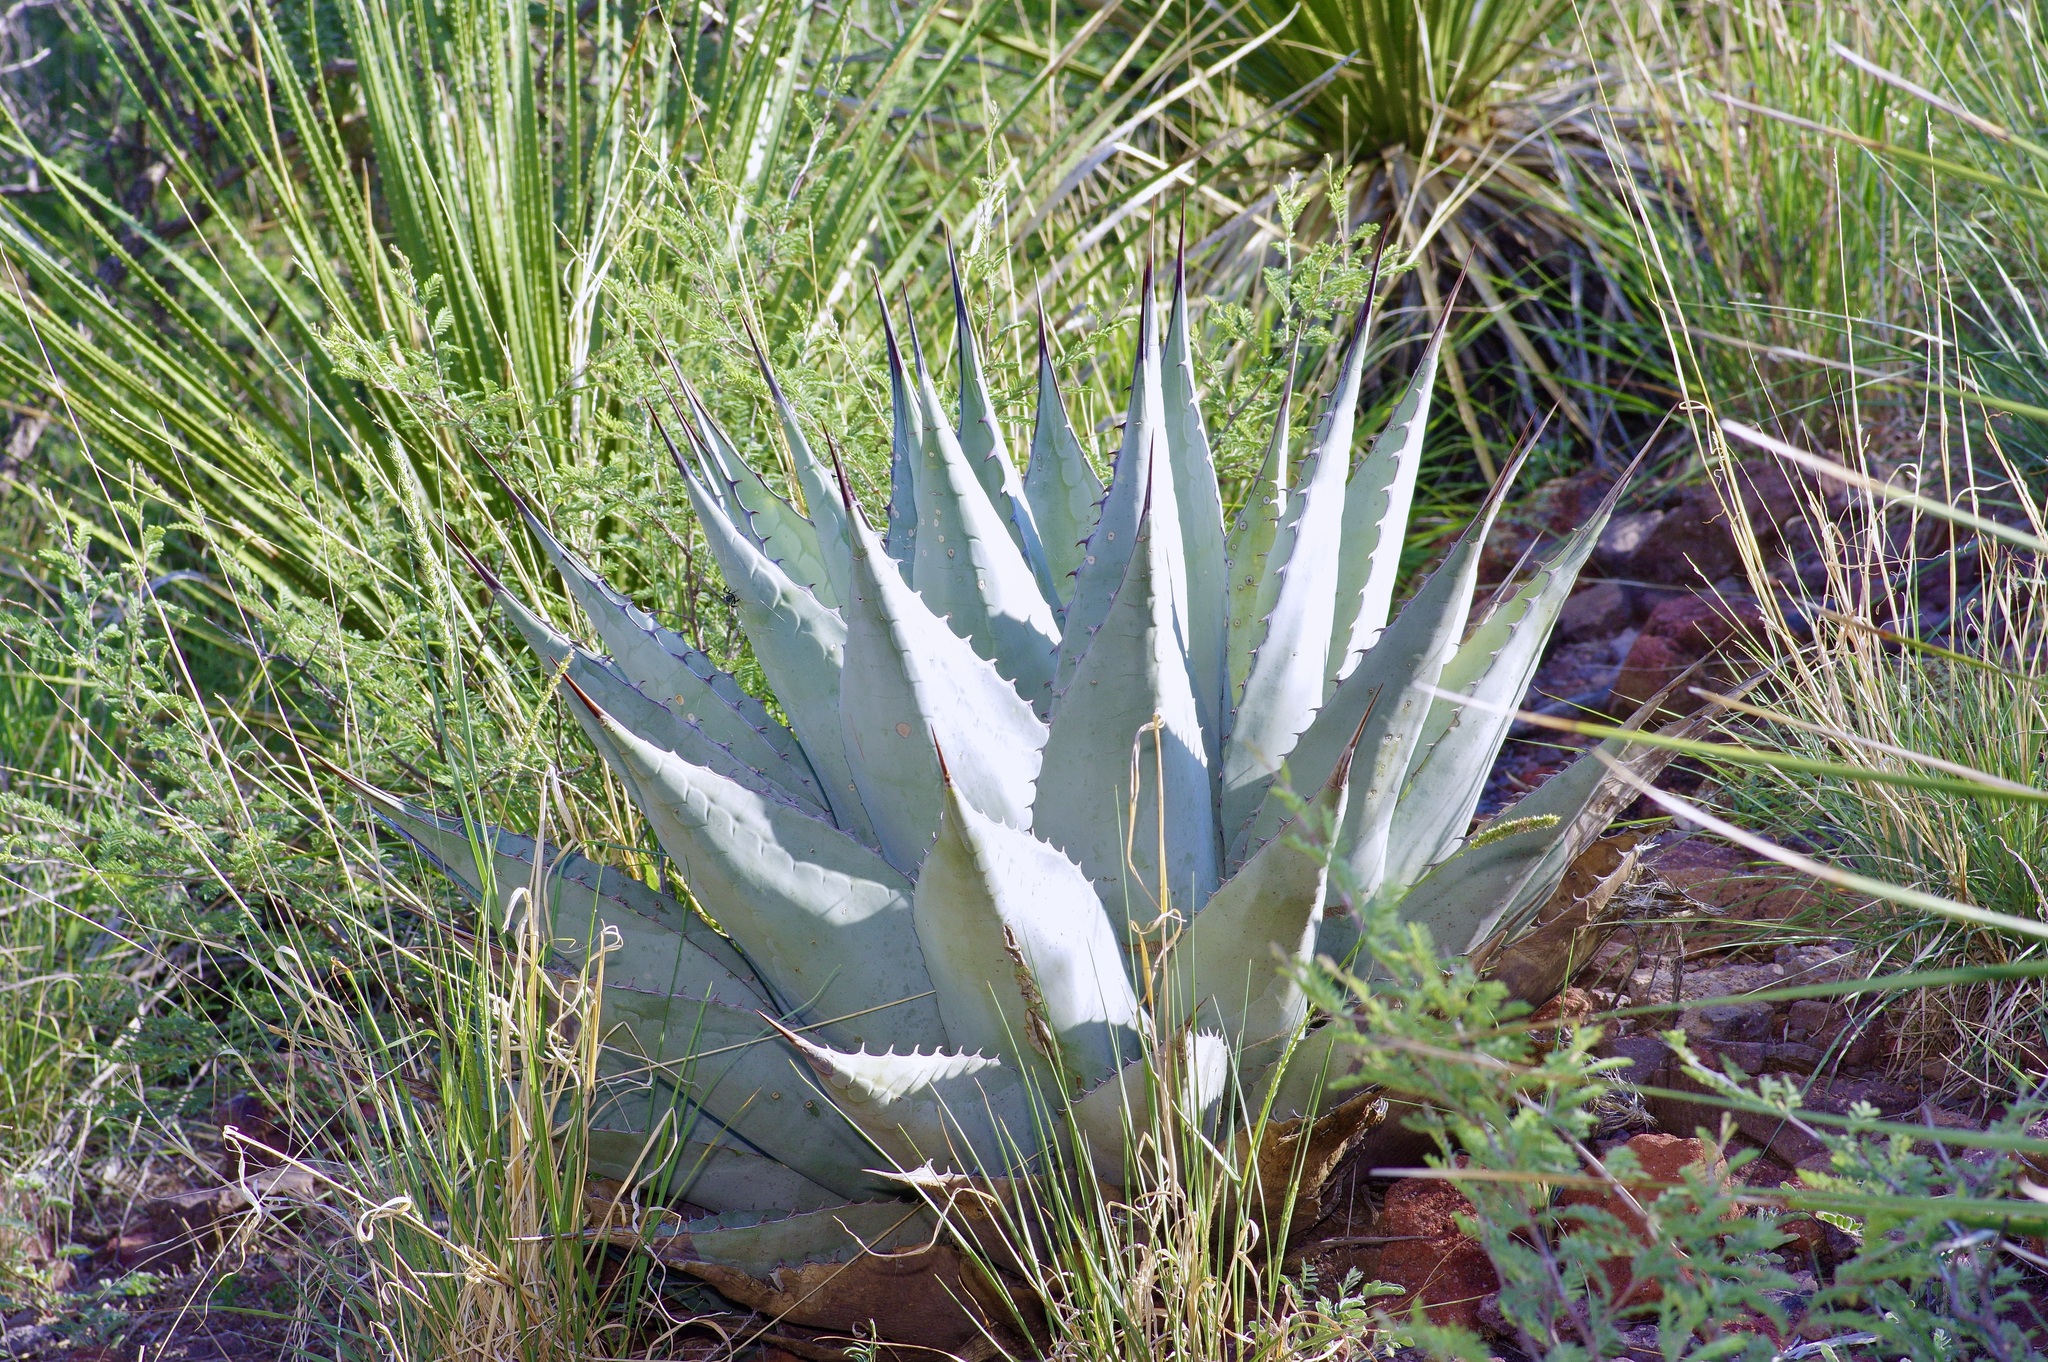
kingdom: Plantae
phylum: Tracheophyta
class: Liliopsida
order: Asparagales
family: Asparagaceae
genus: Agave
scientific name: Agave havardiana
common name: Havard agave
